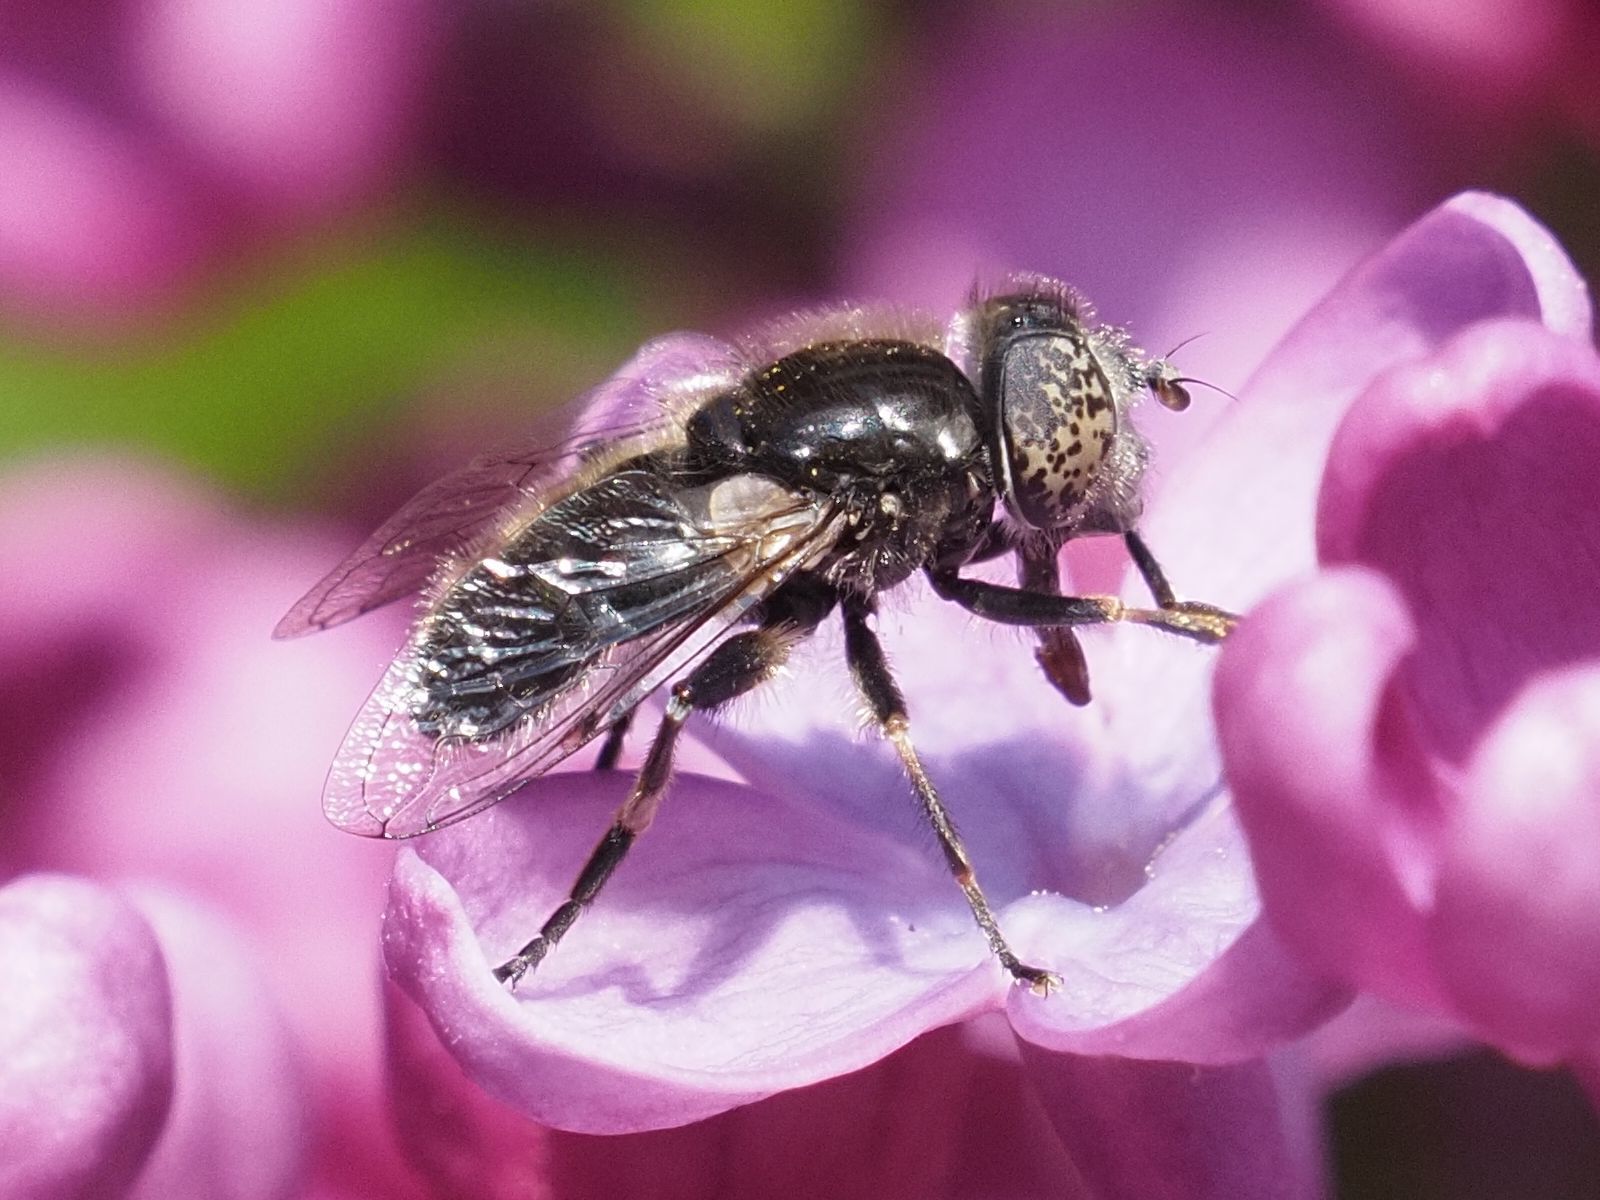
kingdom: Animalia
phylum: Arthropoda
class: Insecta
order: Diptera
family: Syrphidae
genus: Eristalinus
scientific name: Eristalinus sepulchralis
